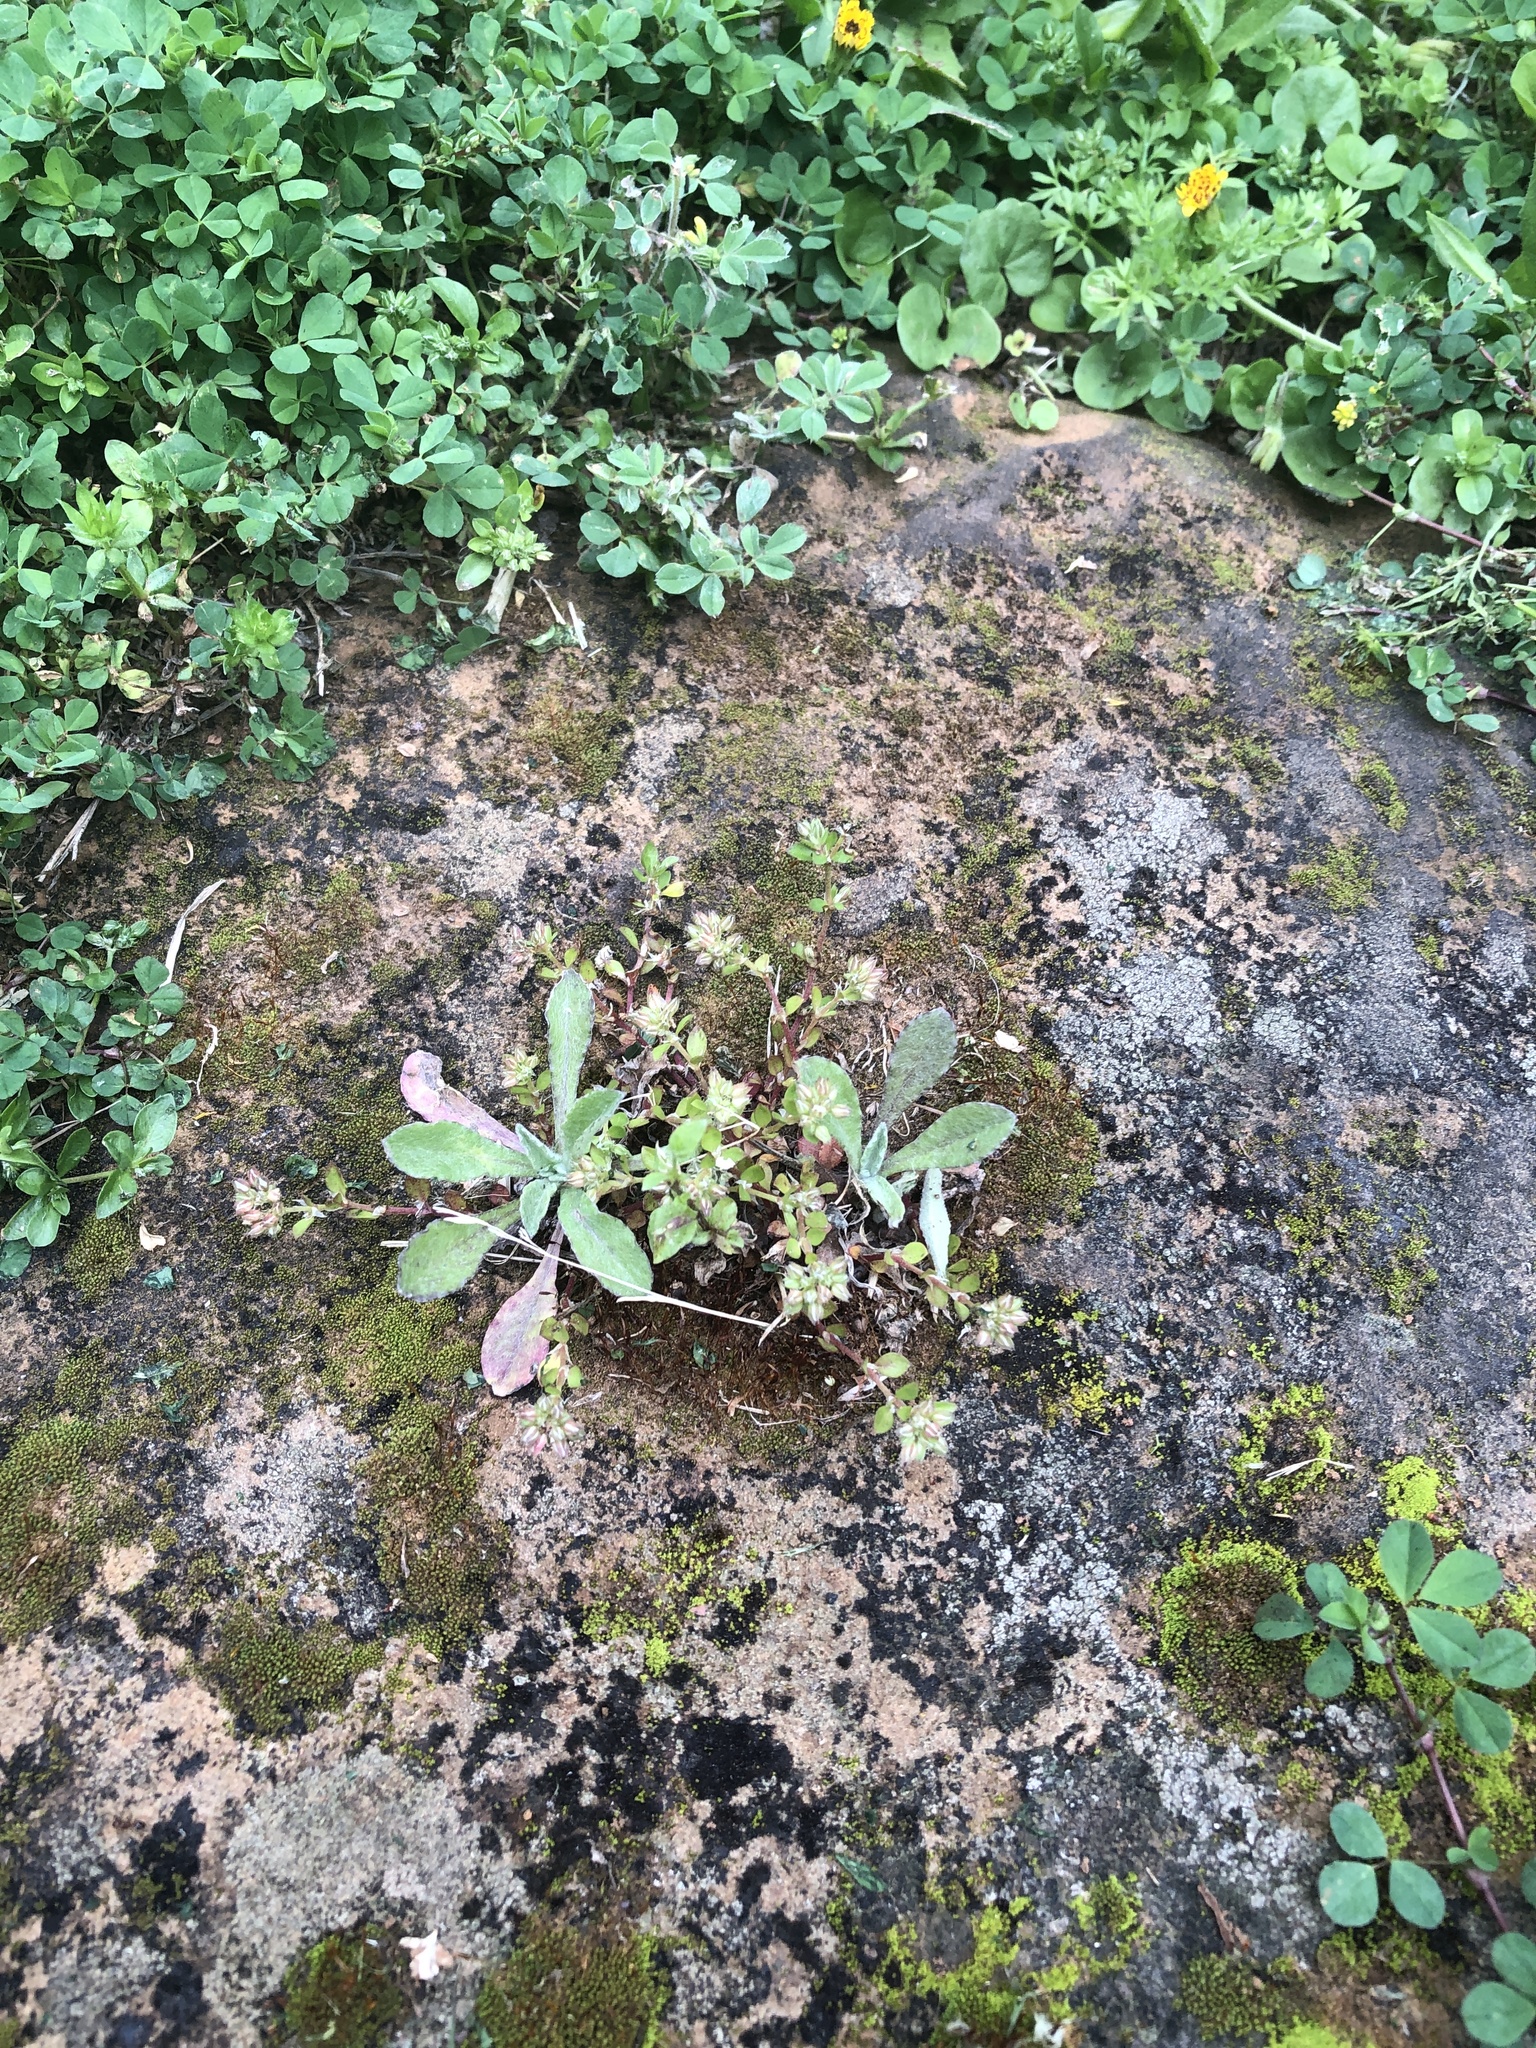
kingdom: Plantae
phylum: Tracheophyta
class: Magnoliopsida
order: Caryophyllales
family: Caryophyllaceae
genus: Polycarpon
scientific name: Polycarpon tetraphyllum
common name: Four-leaved all-seed
